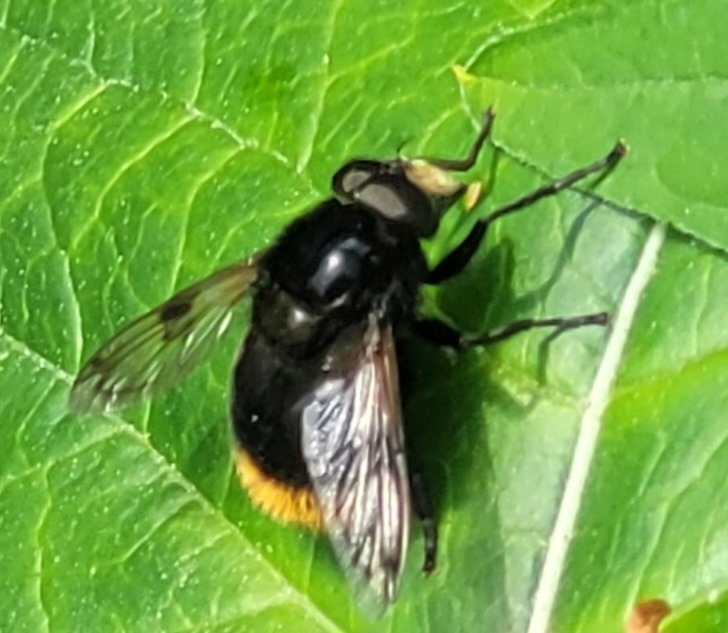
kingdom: Animalia
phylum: Arthropoda
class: Insecta
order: Diptera
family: Syrphidae
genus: Volucella
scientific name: Volucella bombylans
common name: Bumble bee hover fly
